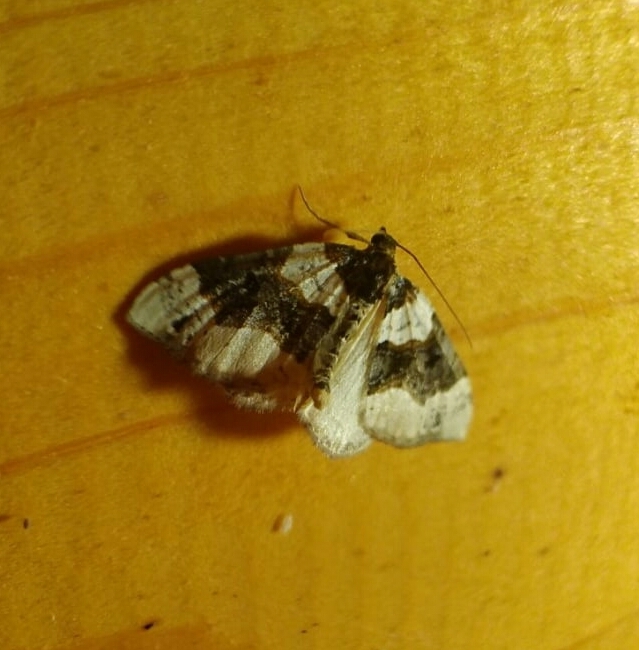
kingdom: Animalia
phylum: Arthropoda
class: Insecta
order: Lepidoptera
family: Geometridae
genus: Cosmorhoe
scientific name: Cosmorhoe ocellata
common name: Purple bar
